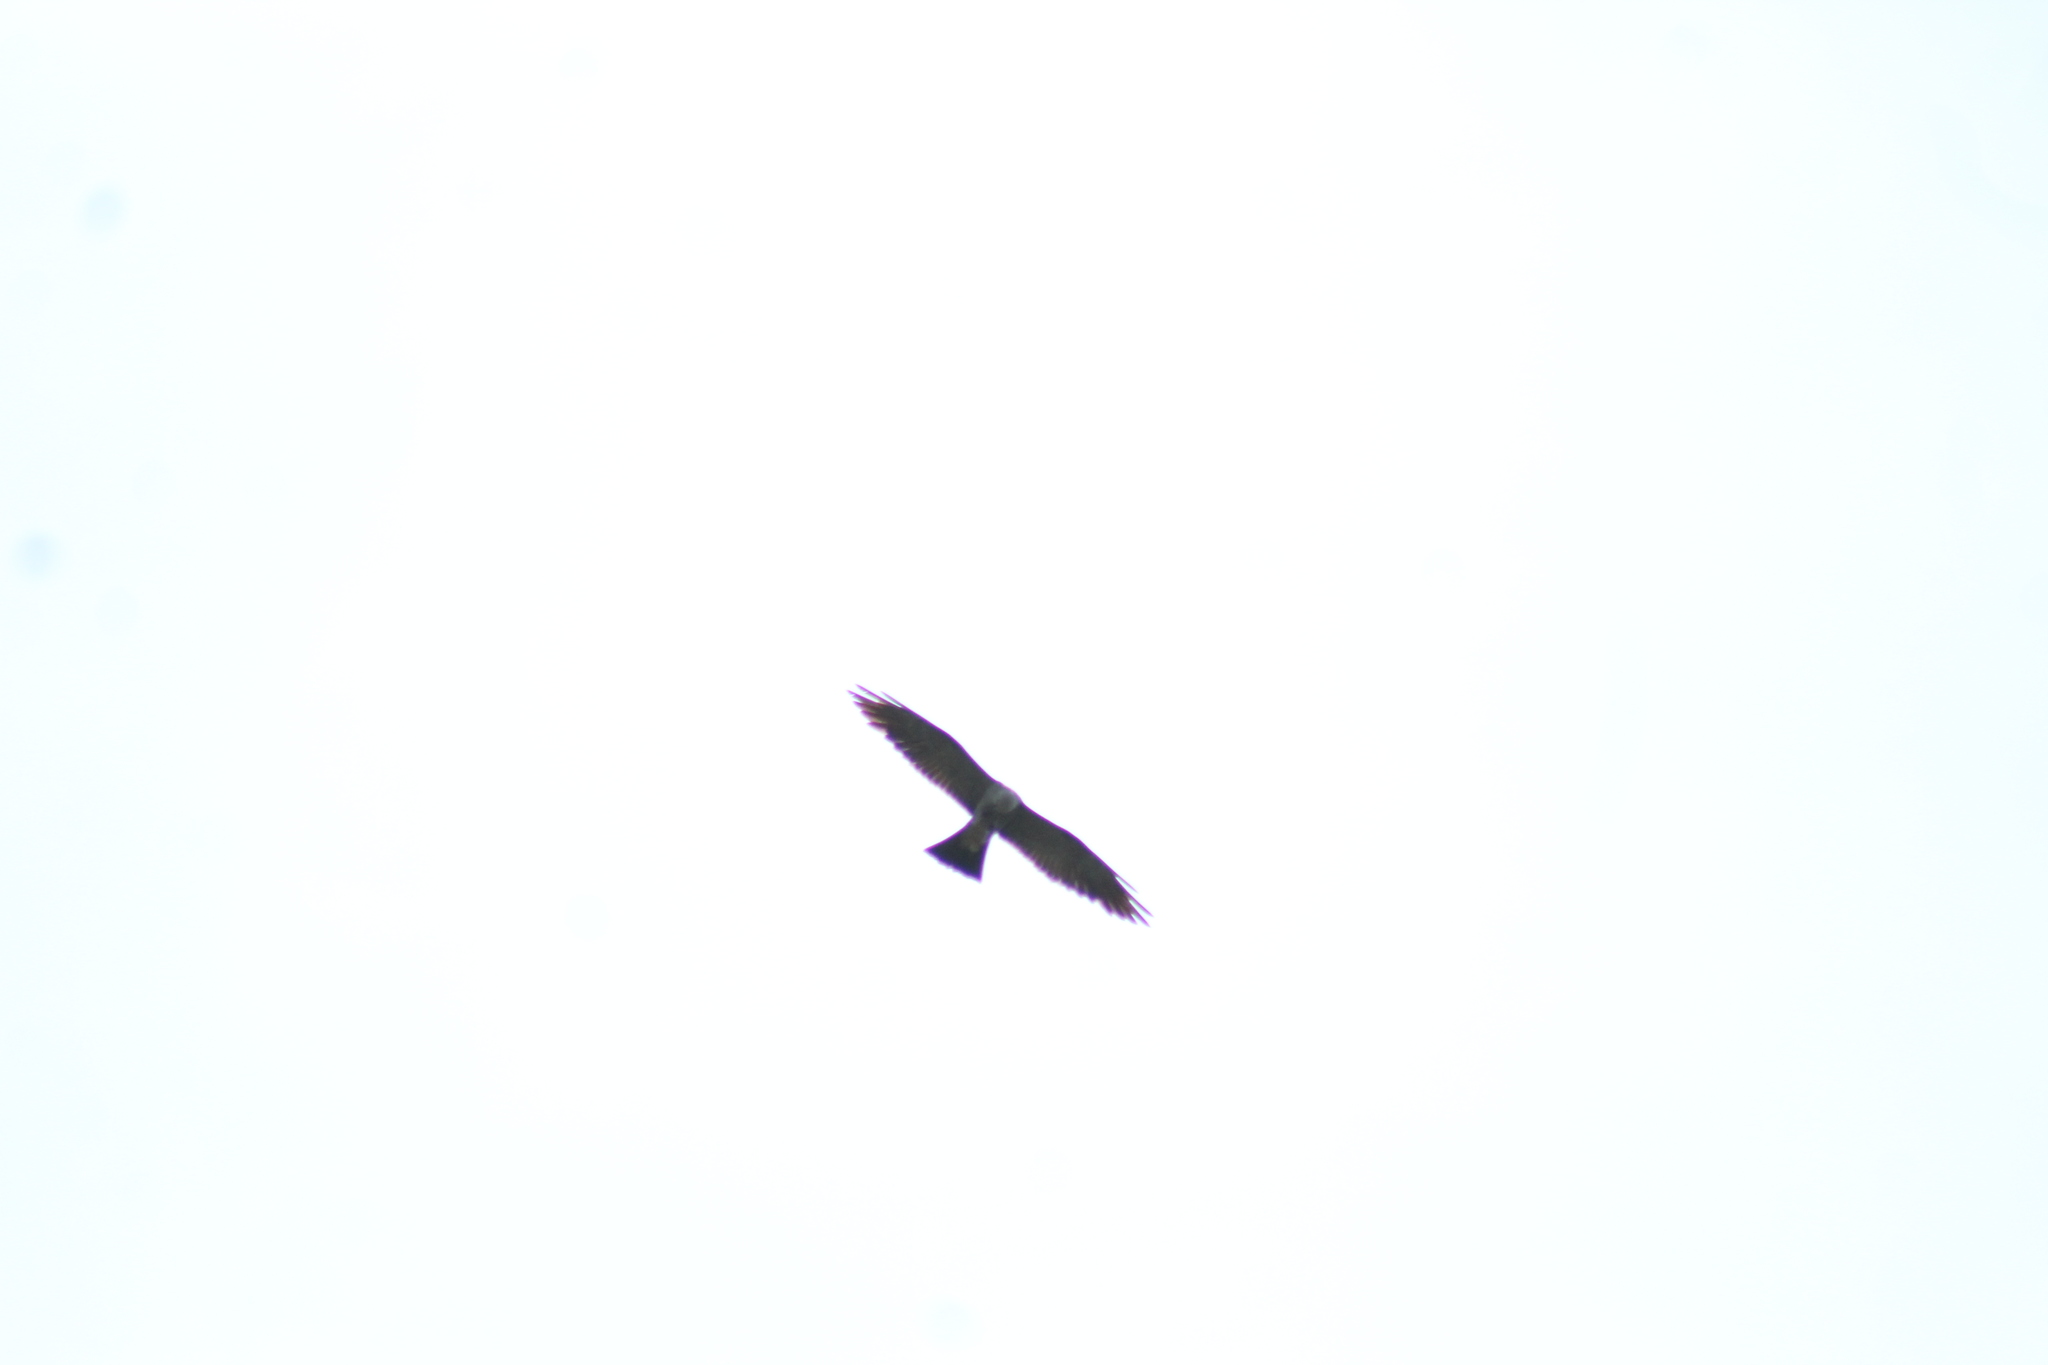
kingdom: Animalia
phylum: Chordata
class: Aves
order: Accipitriformes
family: Accipitridae
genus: Ictinia
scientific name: Ictinia mississippiensis
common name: Mississippi kite
